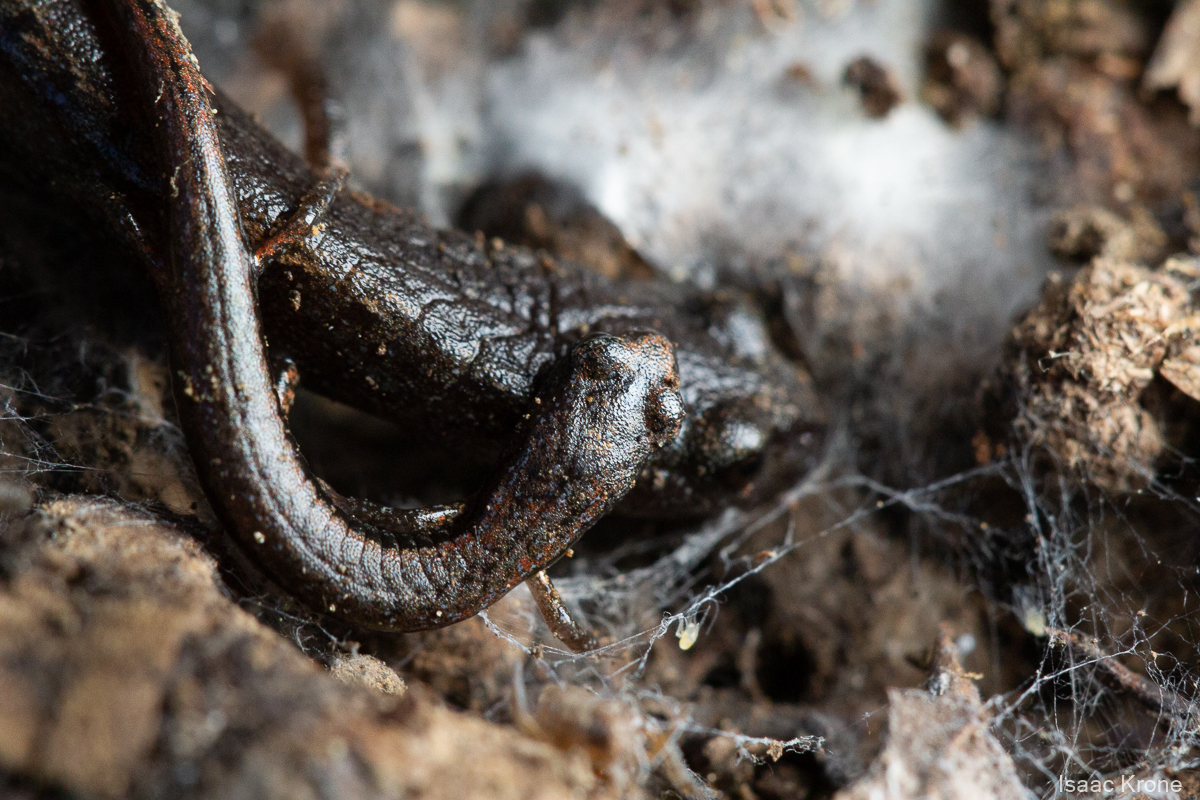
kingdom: Animalia
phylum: Chordata
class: Amphibia
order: Caudata
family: Plethodontidae
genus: Batrachoseps
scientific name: Batrachoseps attenuatus
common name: California slender salamander
